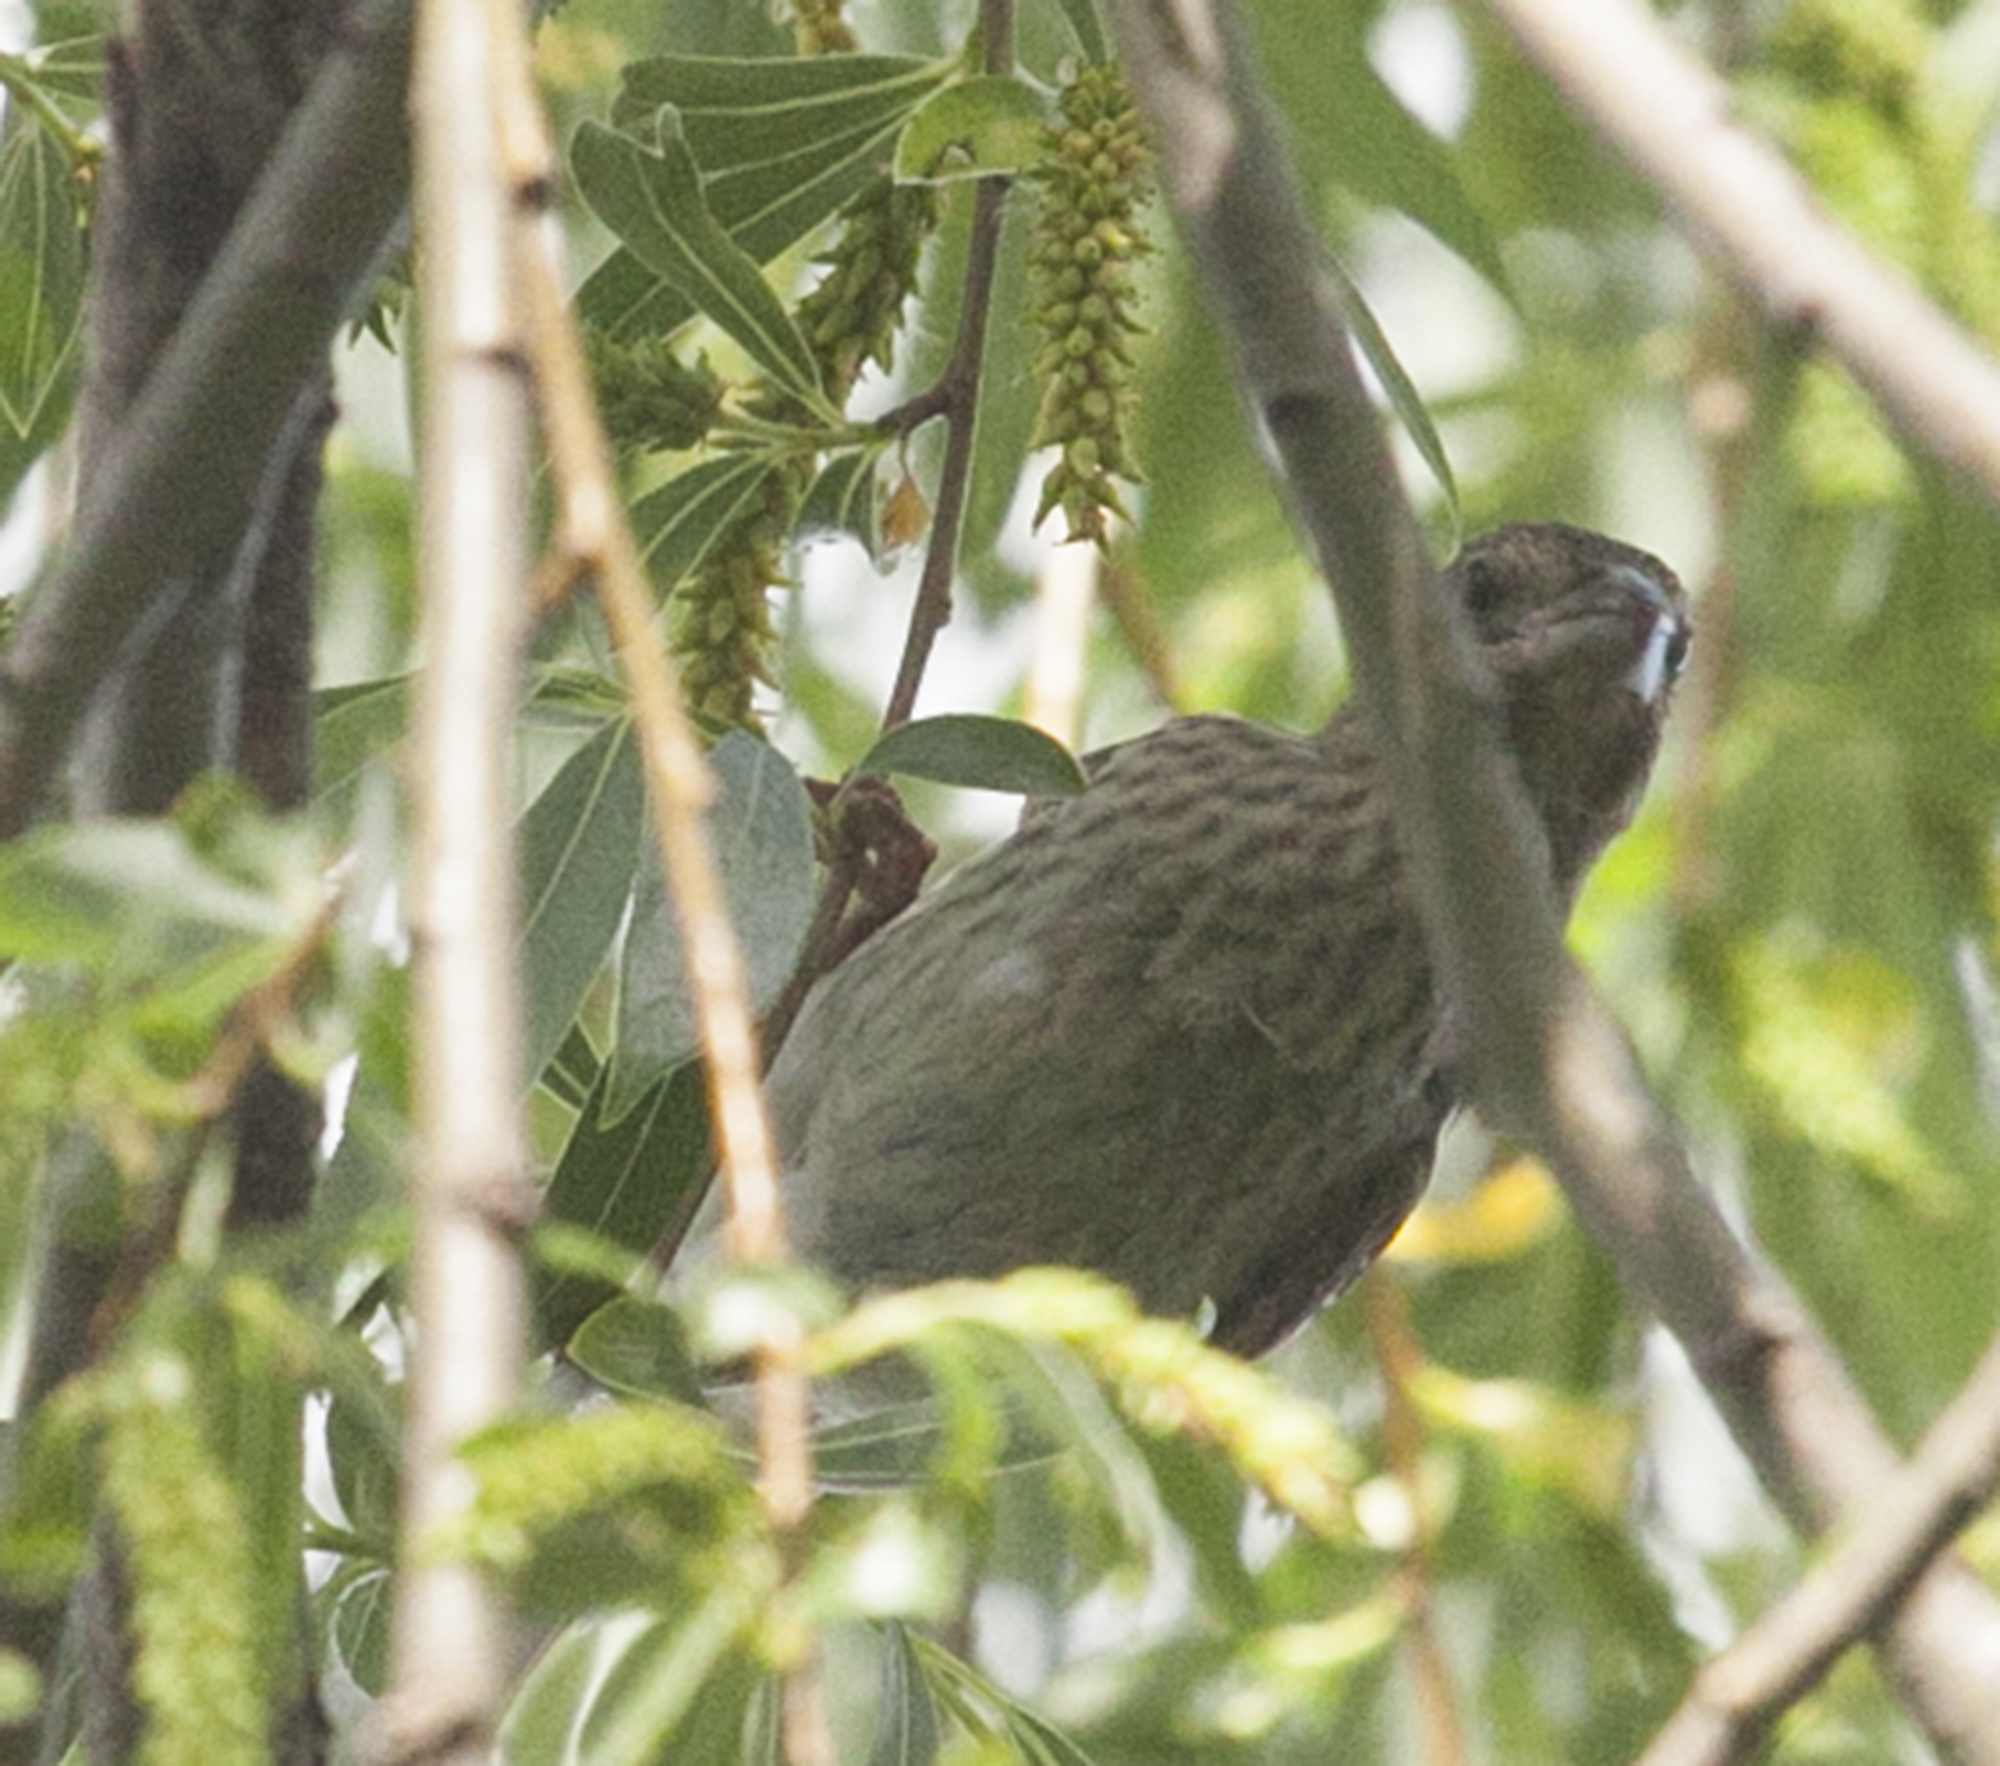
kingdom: Animalia
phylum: Chordata
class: Aves
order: Passeriformes
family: Fringillidae
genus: Carpodacus
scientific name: Carpodacus erythrinus
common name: Common rosefinch
